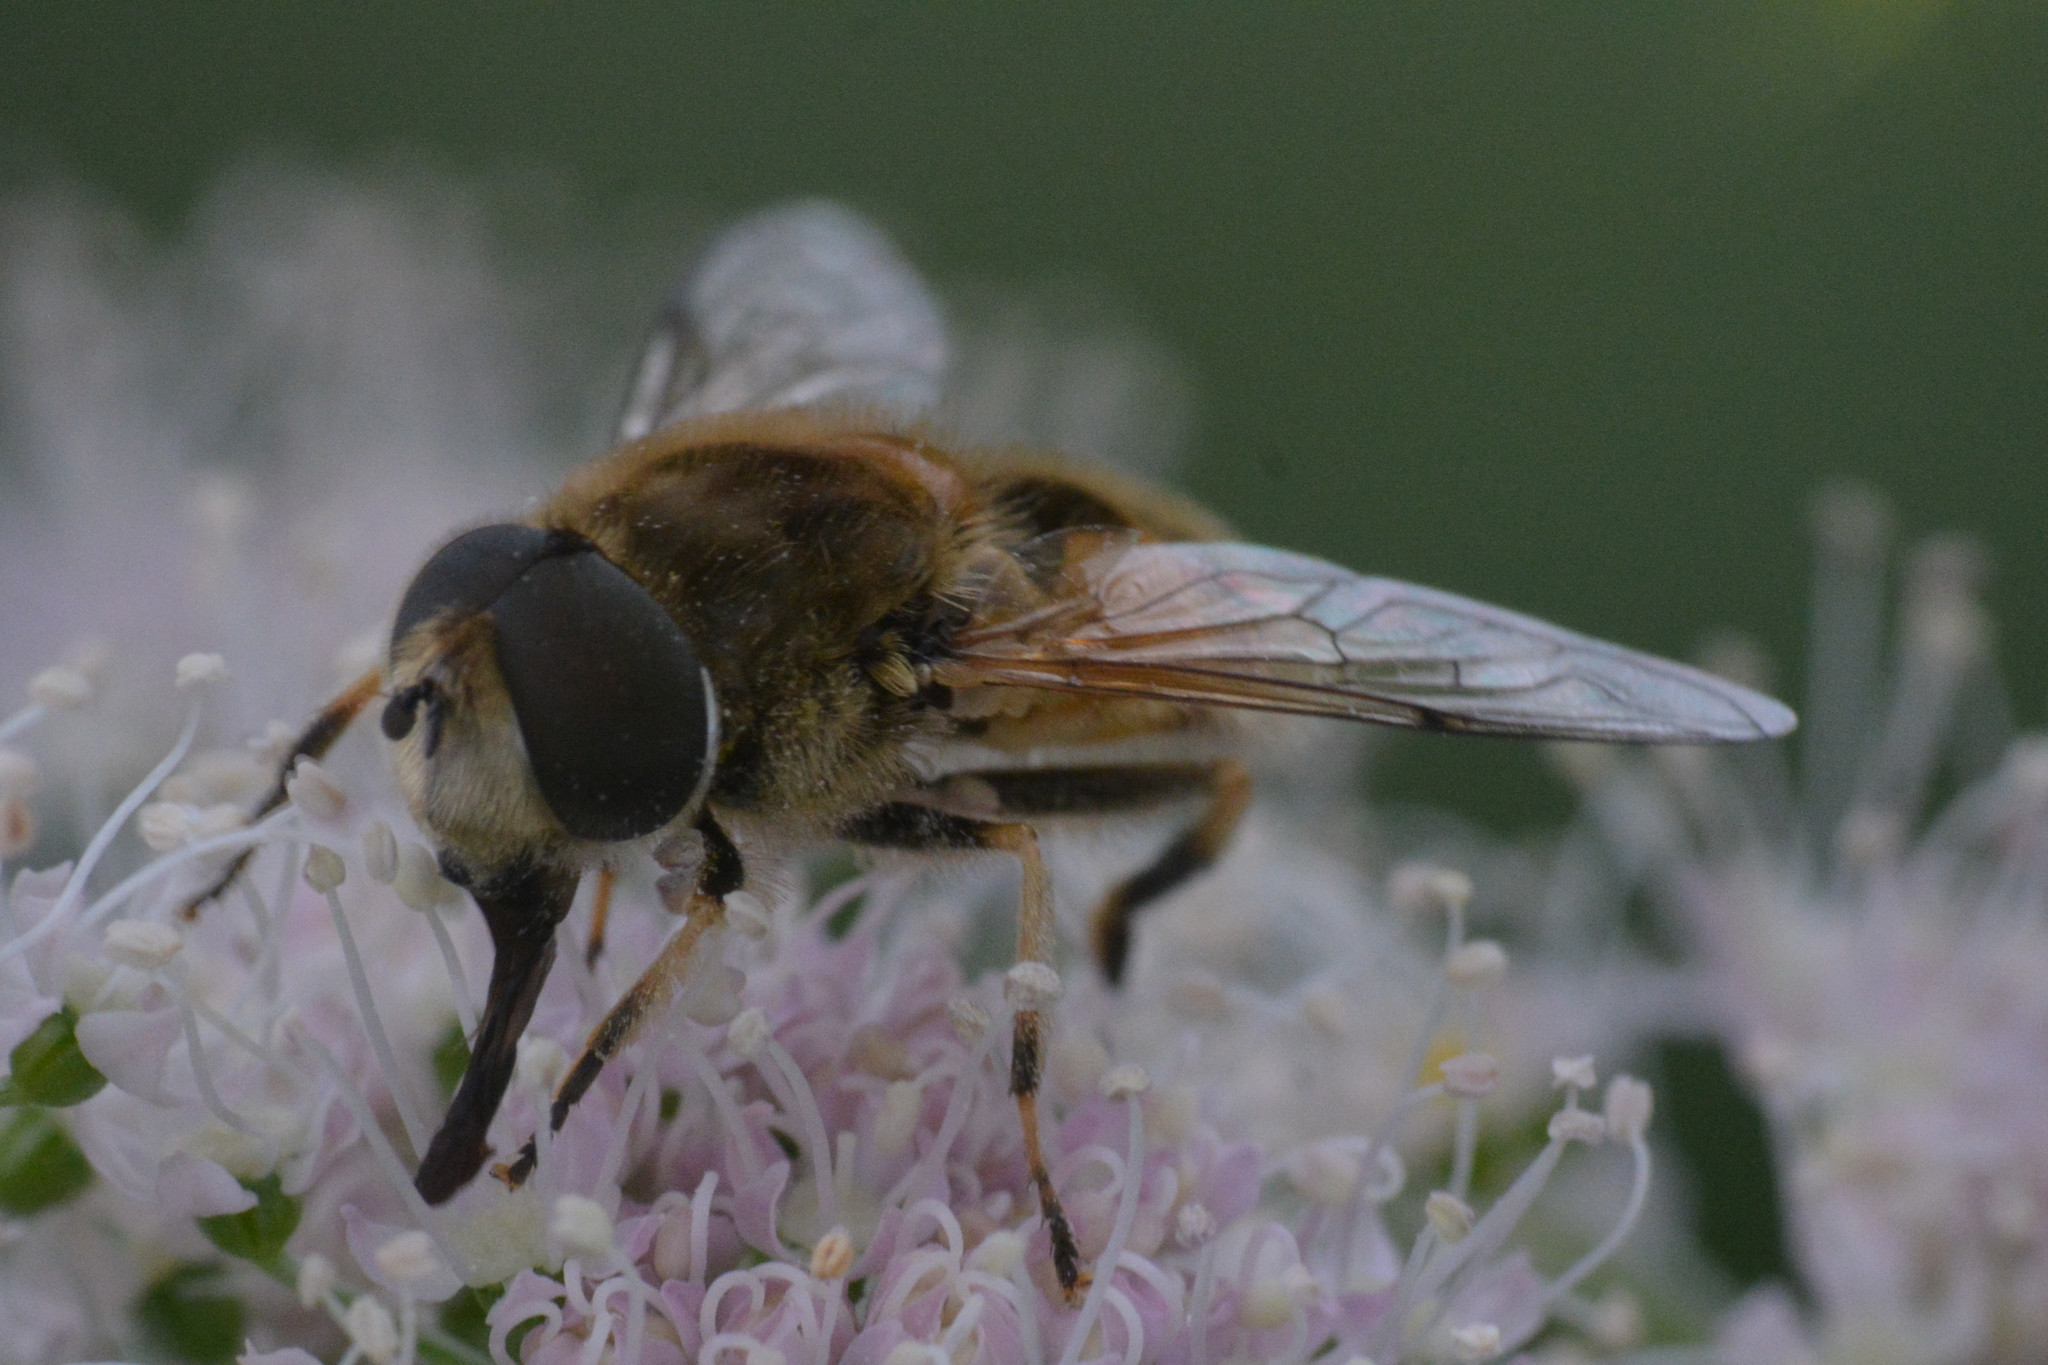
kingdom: Animalia
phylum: Arthropoda
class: Insecta
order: Diptera
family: Syrphidae
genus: Eristalis
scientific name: Eristalis arbustorum
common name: Hover fly
